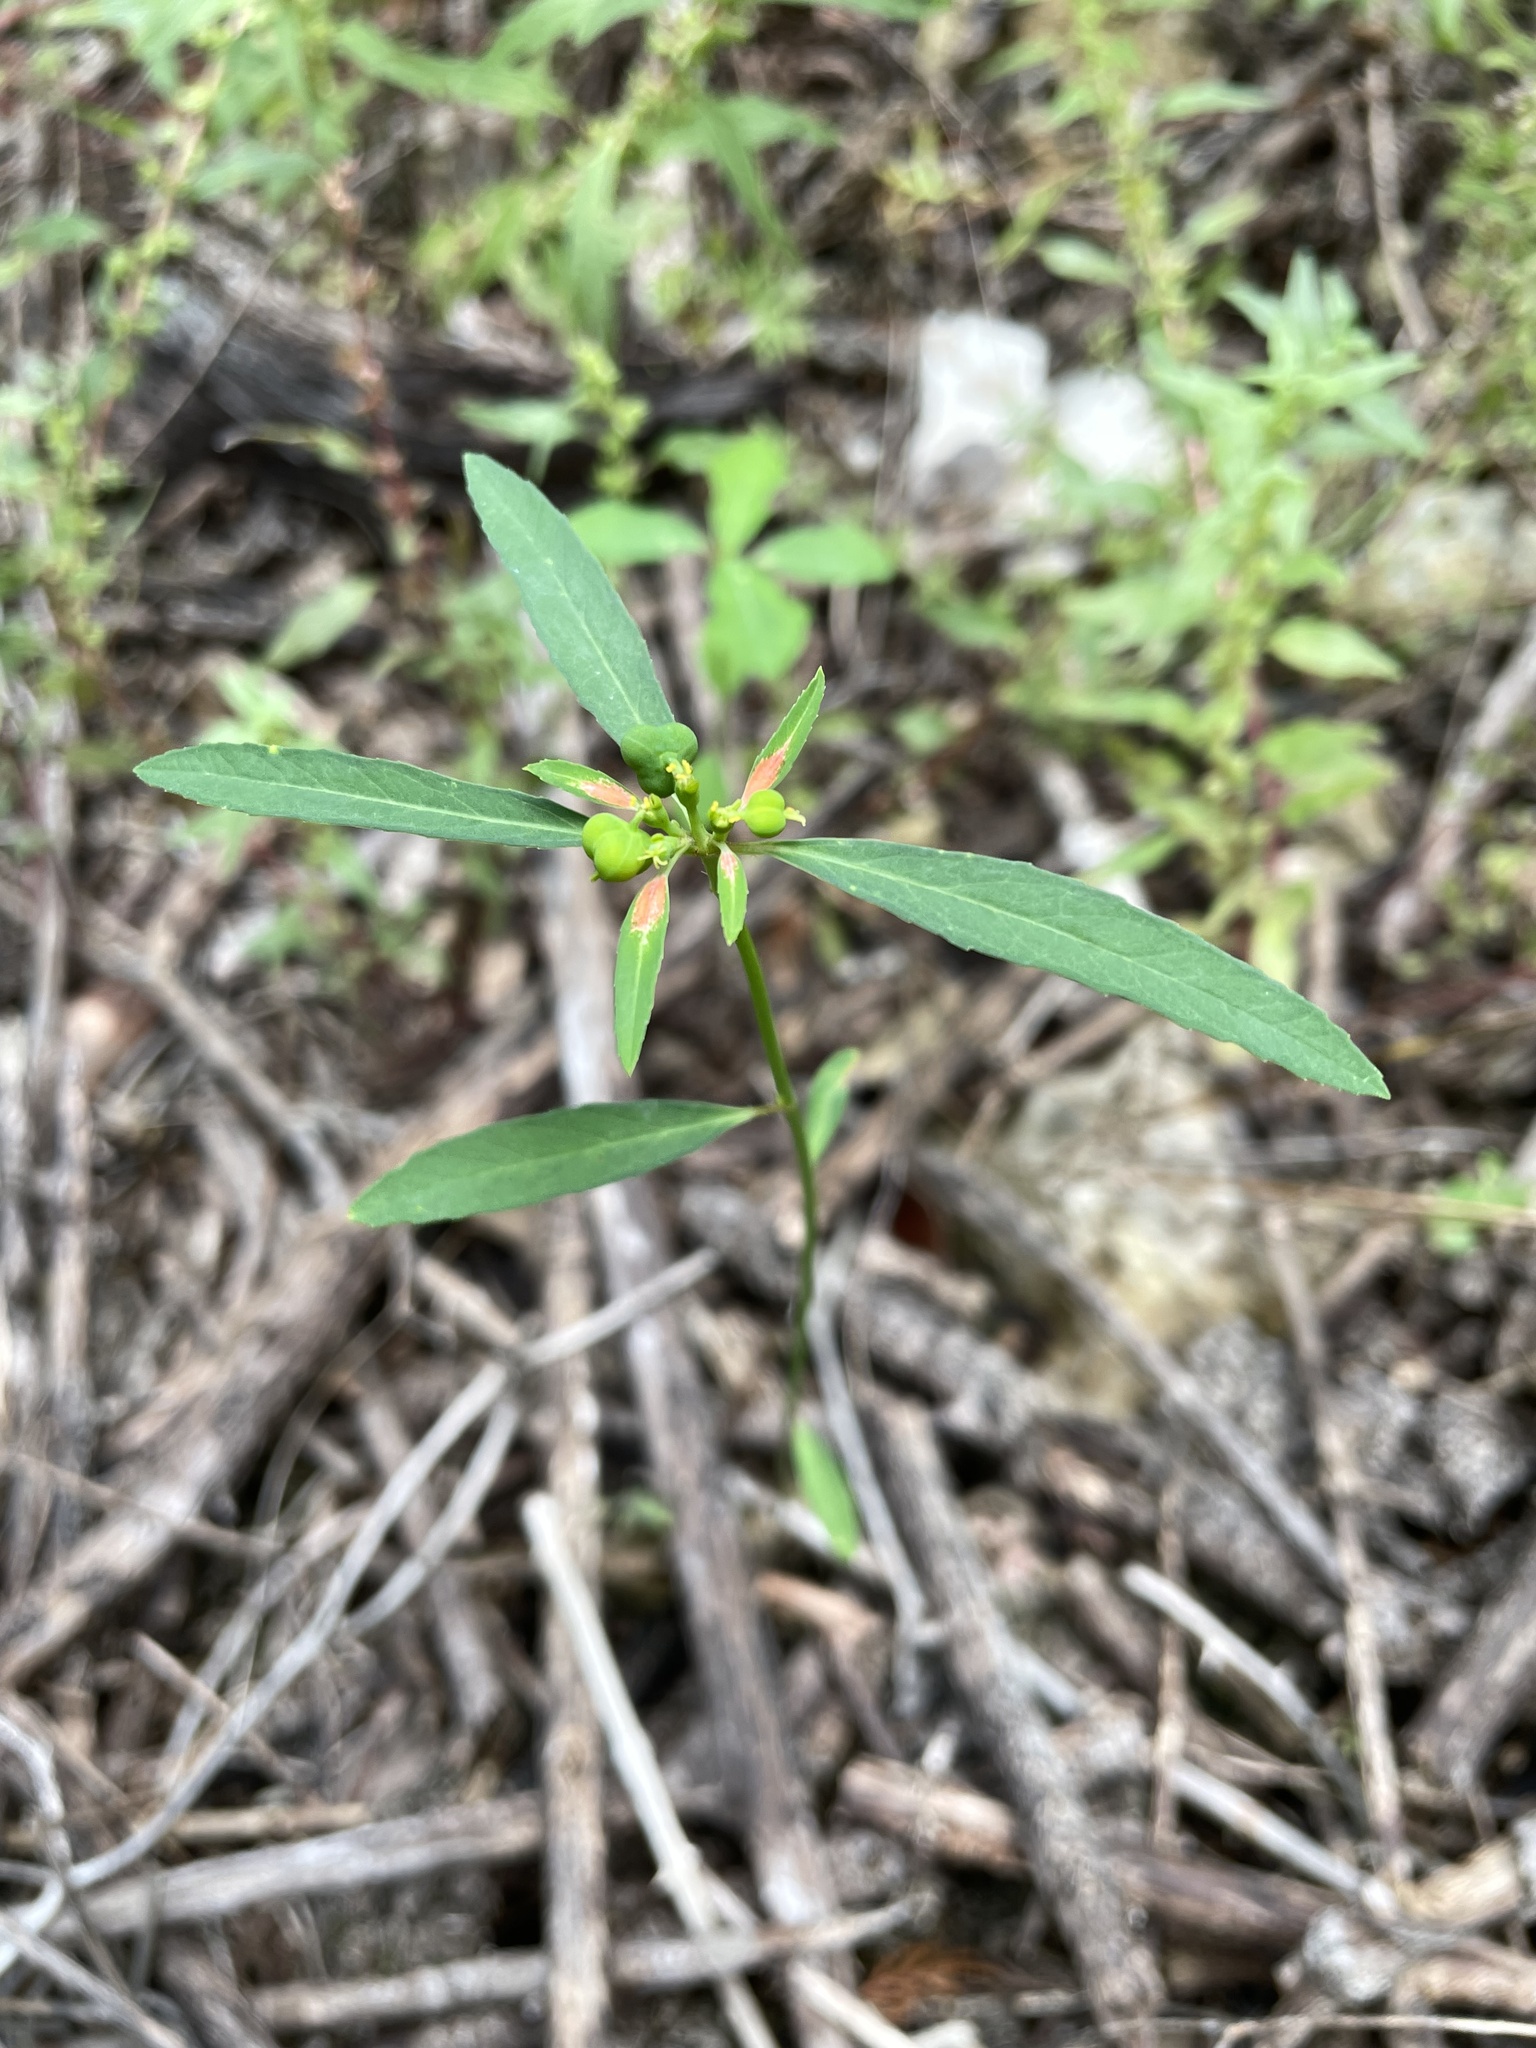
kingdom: Plantae
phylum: Tracheophyta
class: Magnoliopsida
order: Malpighiales
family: Euphorbiaceae
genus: Euphorbia
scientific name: Euphorbia heterophylla
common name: Mexican fireplant
